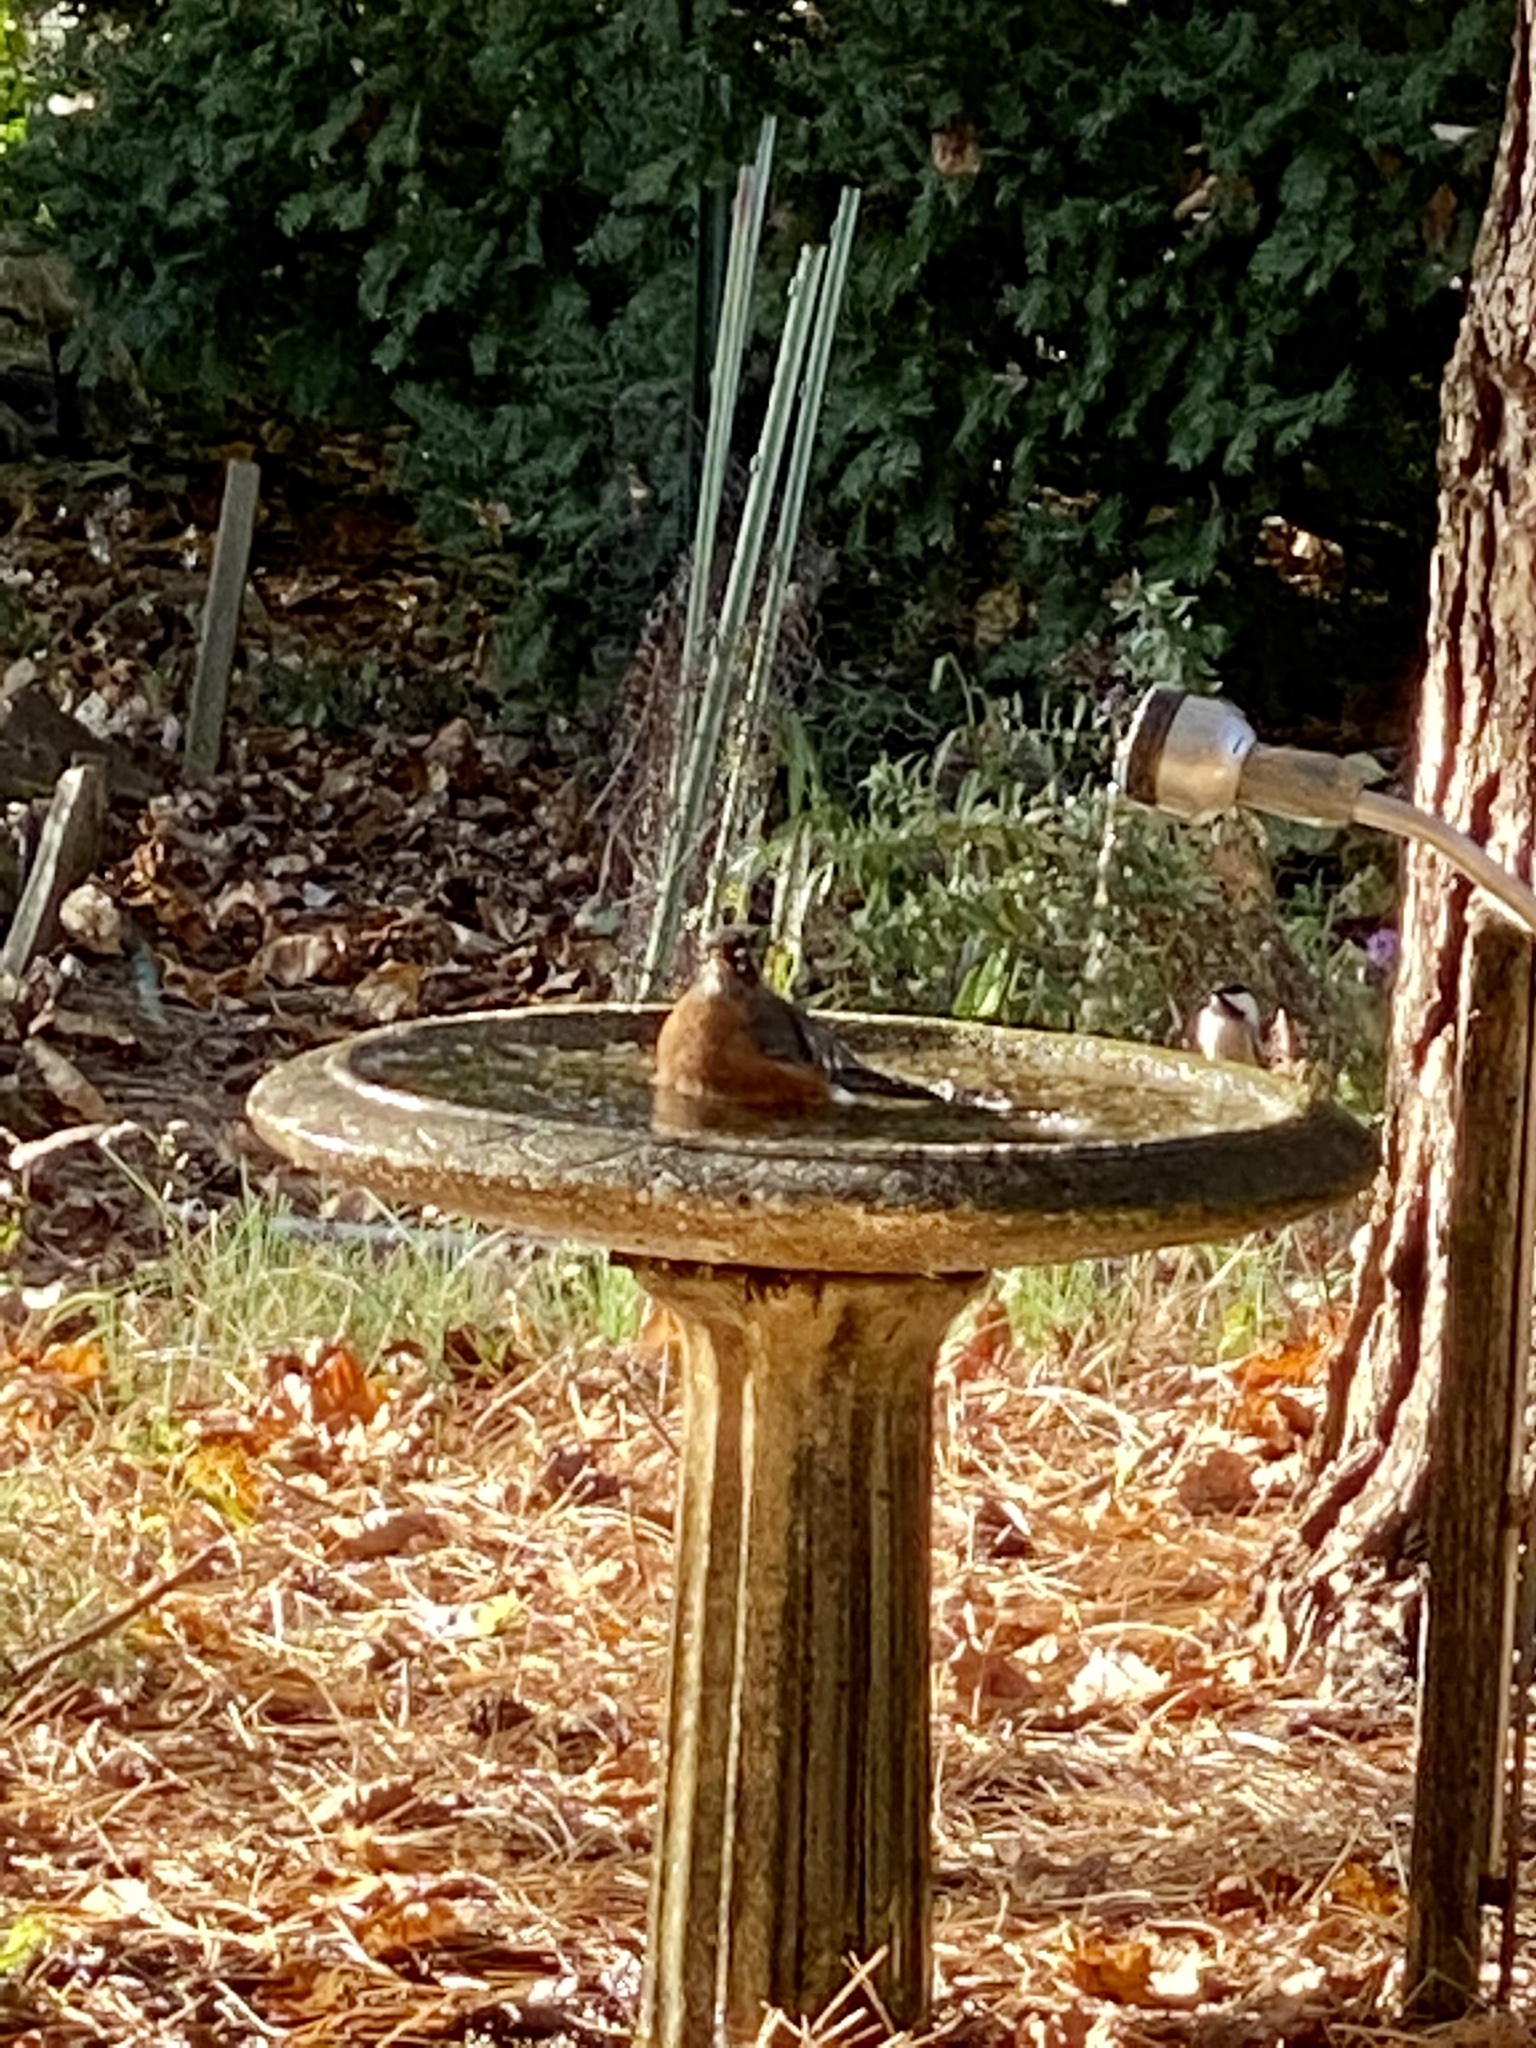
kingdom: Animalia
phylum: Chordata
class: Aves
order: Passeriformes
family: Turdidae
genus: Turdus
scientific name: Turdus migratorius
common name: American robin
